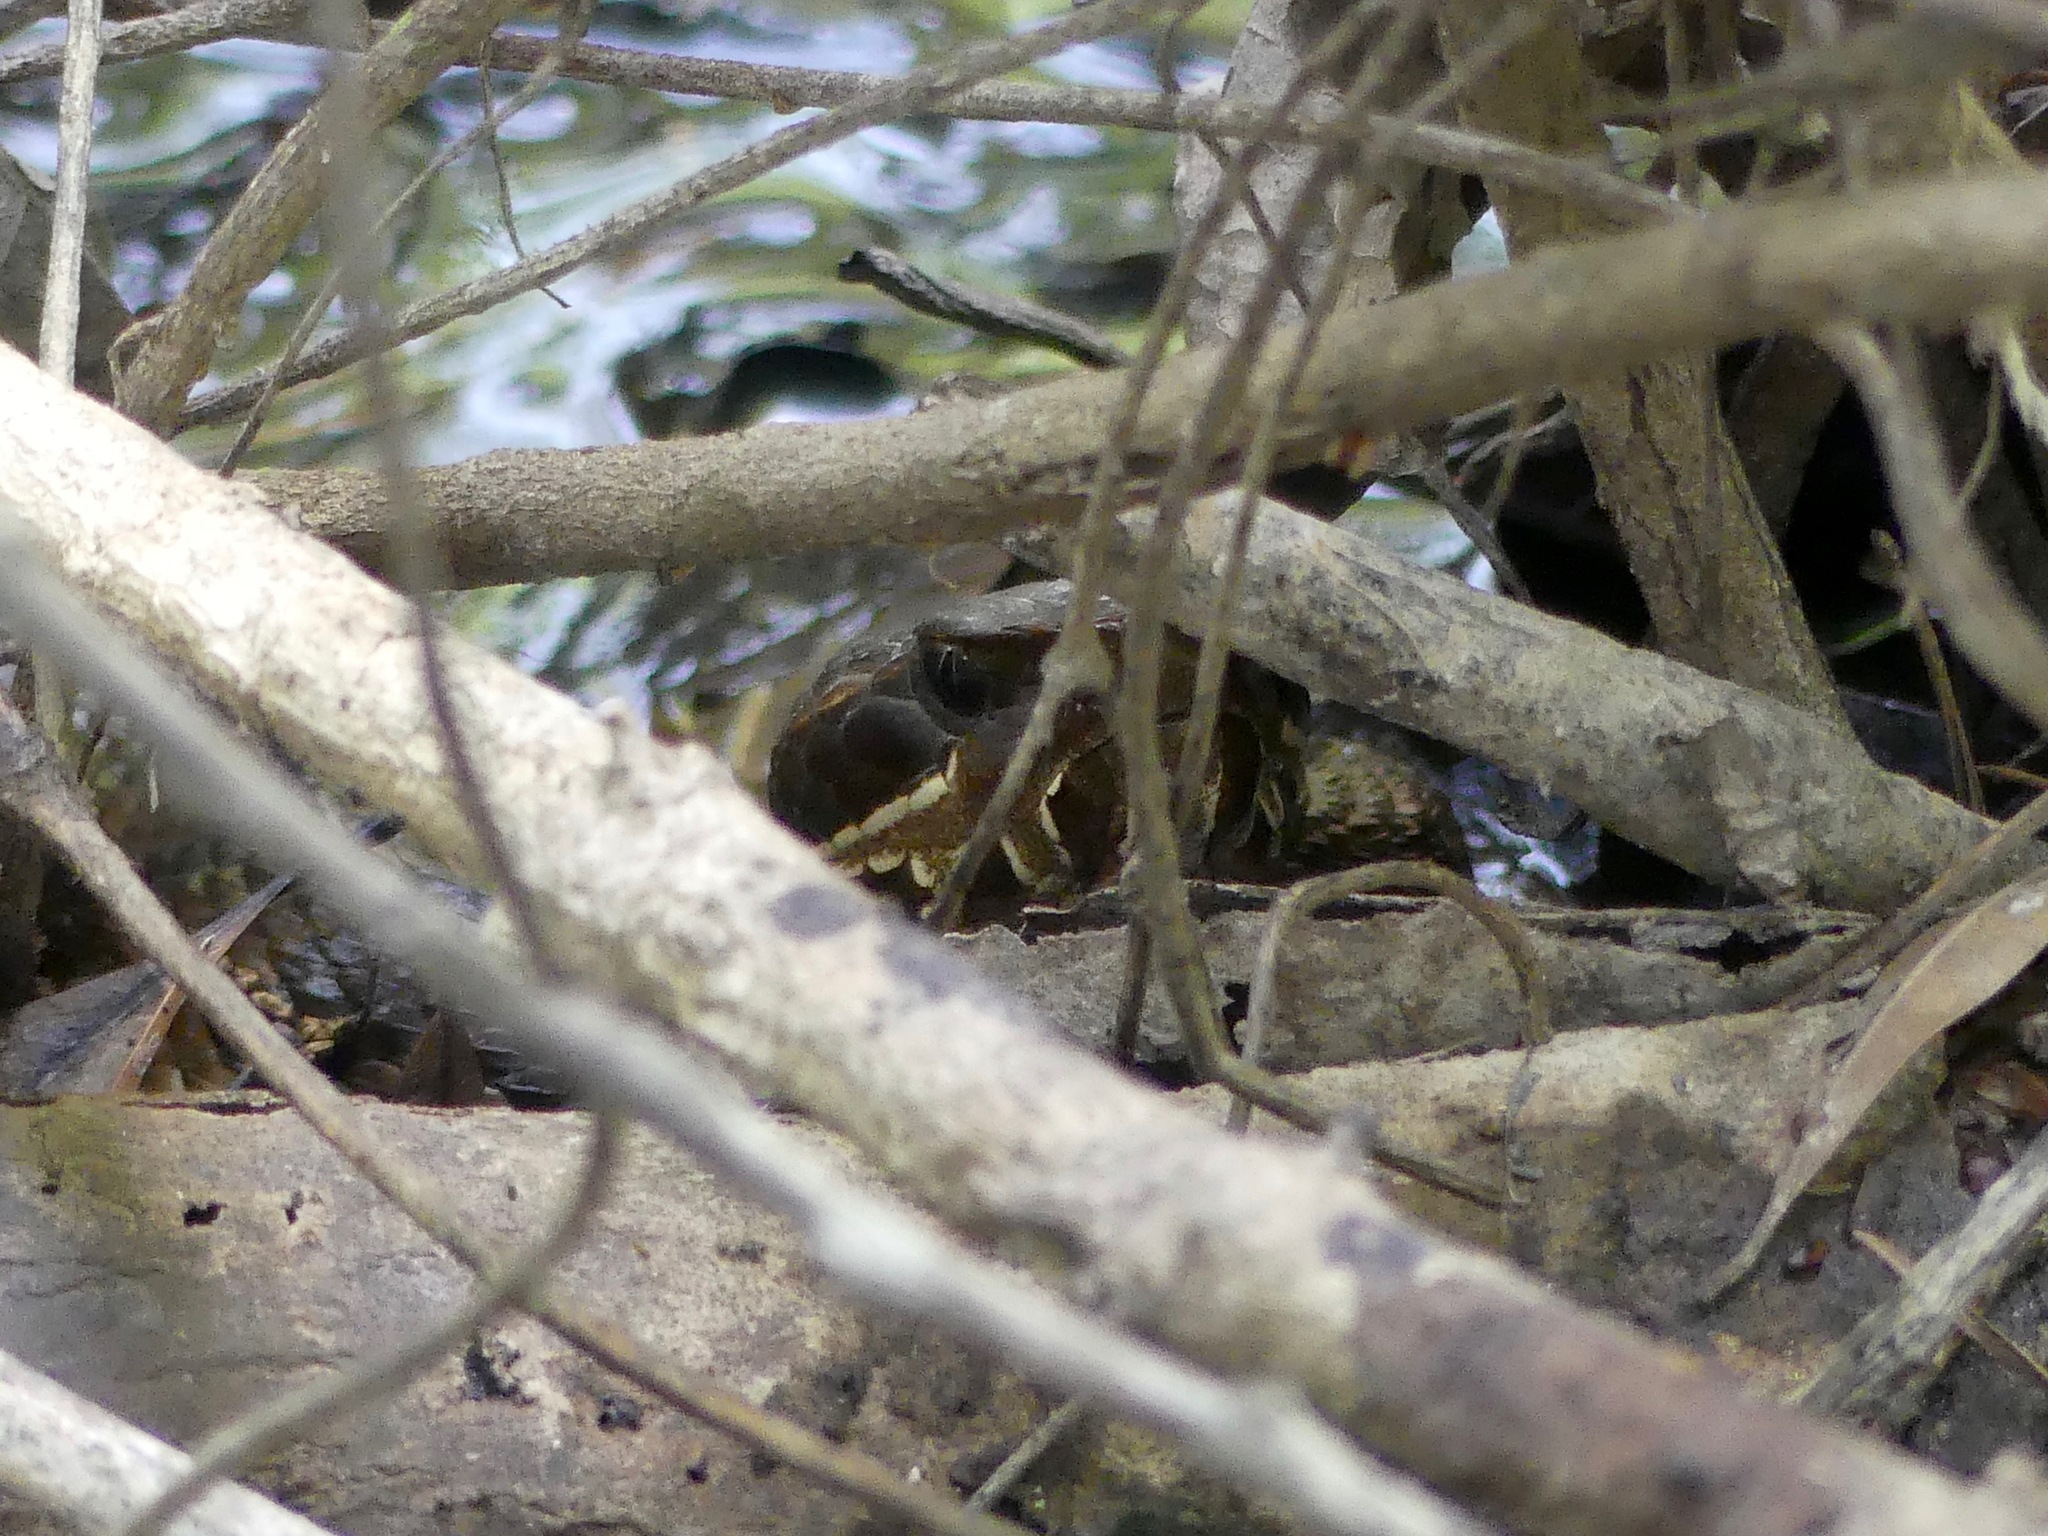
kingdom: Animalia
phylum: Chordata
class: Squamata
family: Viperidae
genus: Agkistrodon
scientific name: Agkistrodon piscivorus
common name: Cottonmouth
